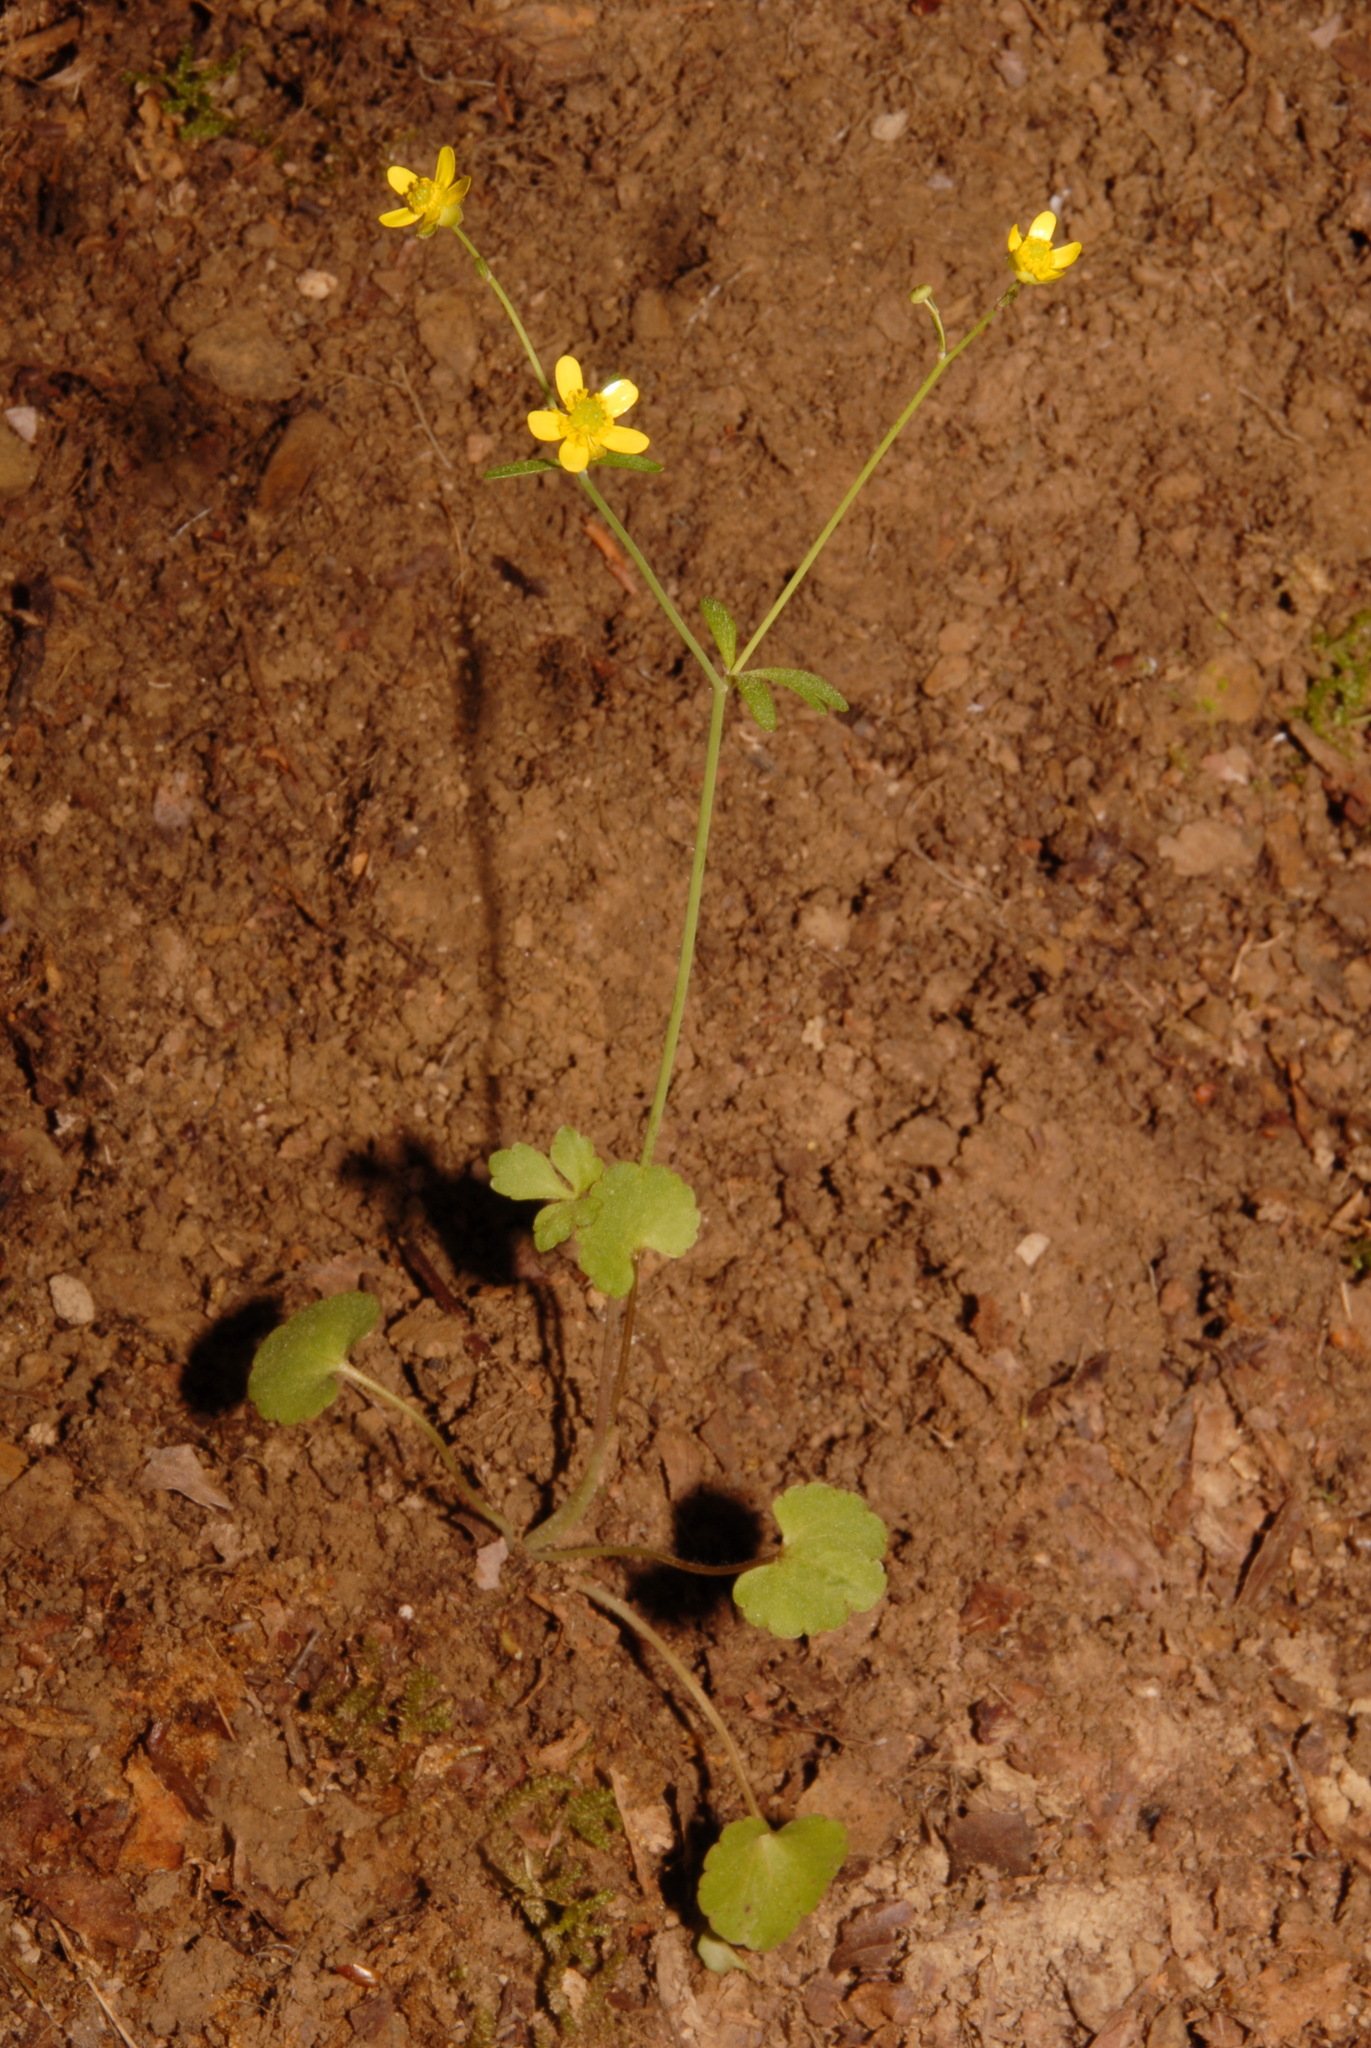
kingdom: Plantae
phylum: Tracheophyta
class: Magnoliopsida
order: Ranunculales
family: Ranunculaceae
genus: Ranunculus
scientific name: Ranunculus harveyi
